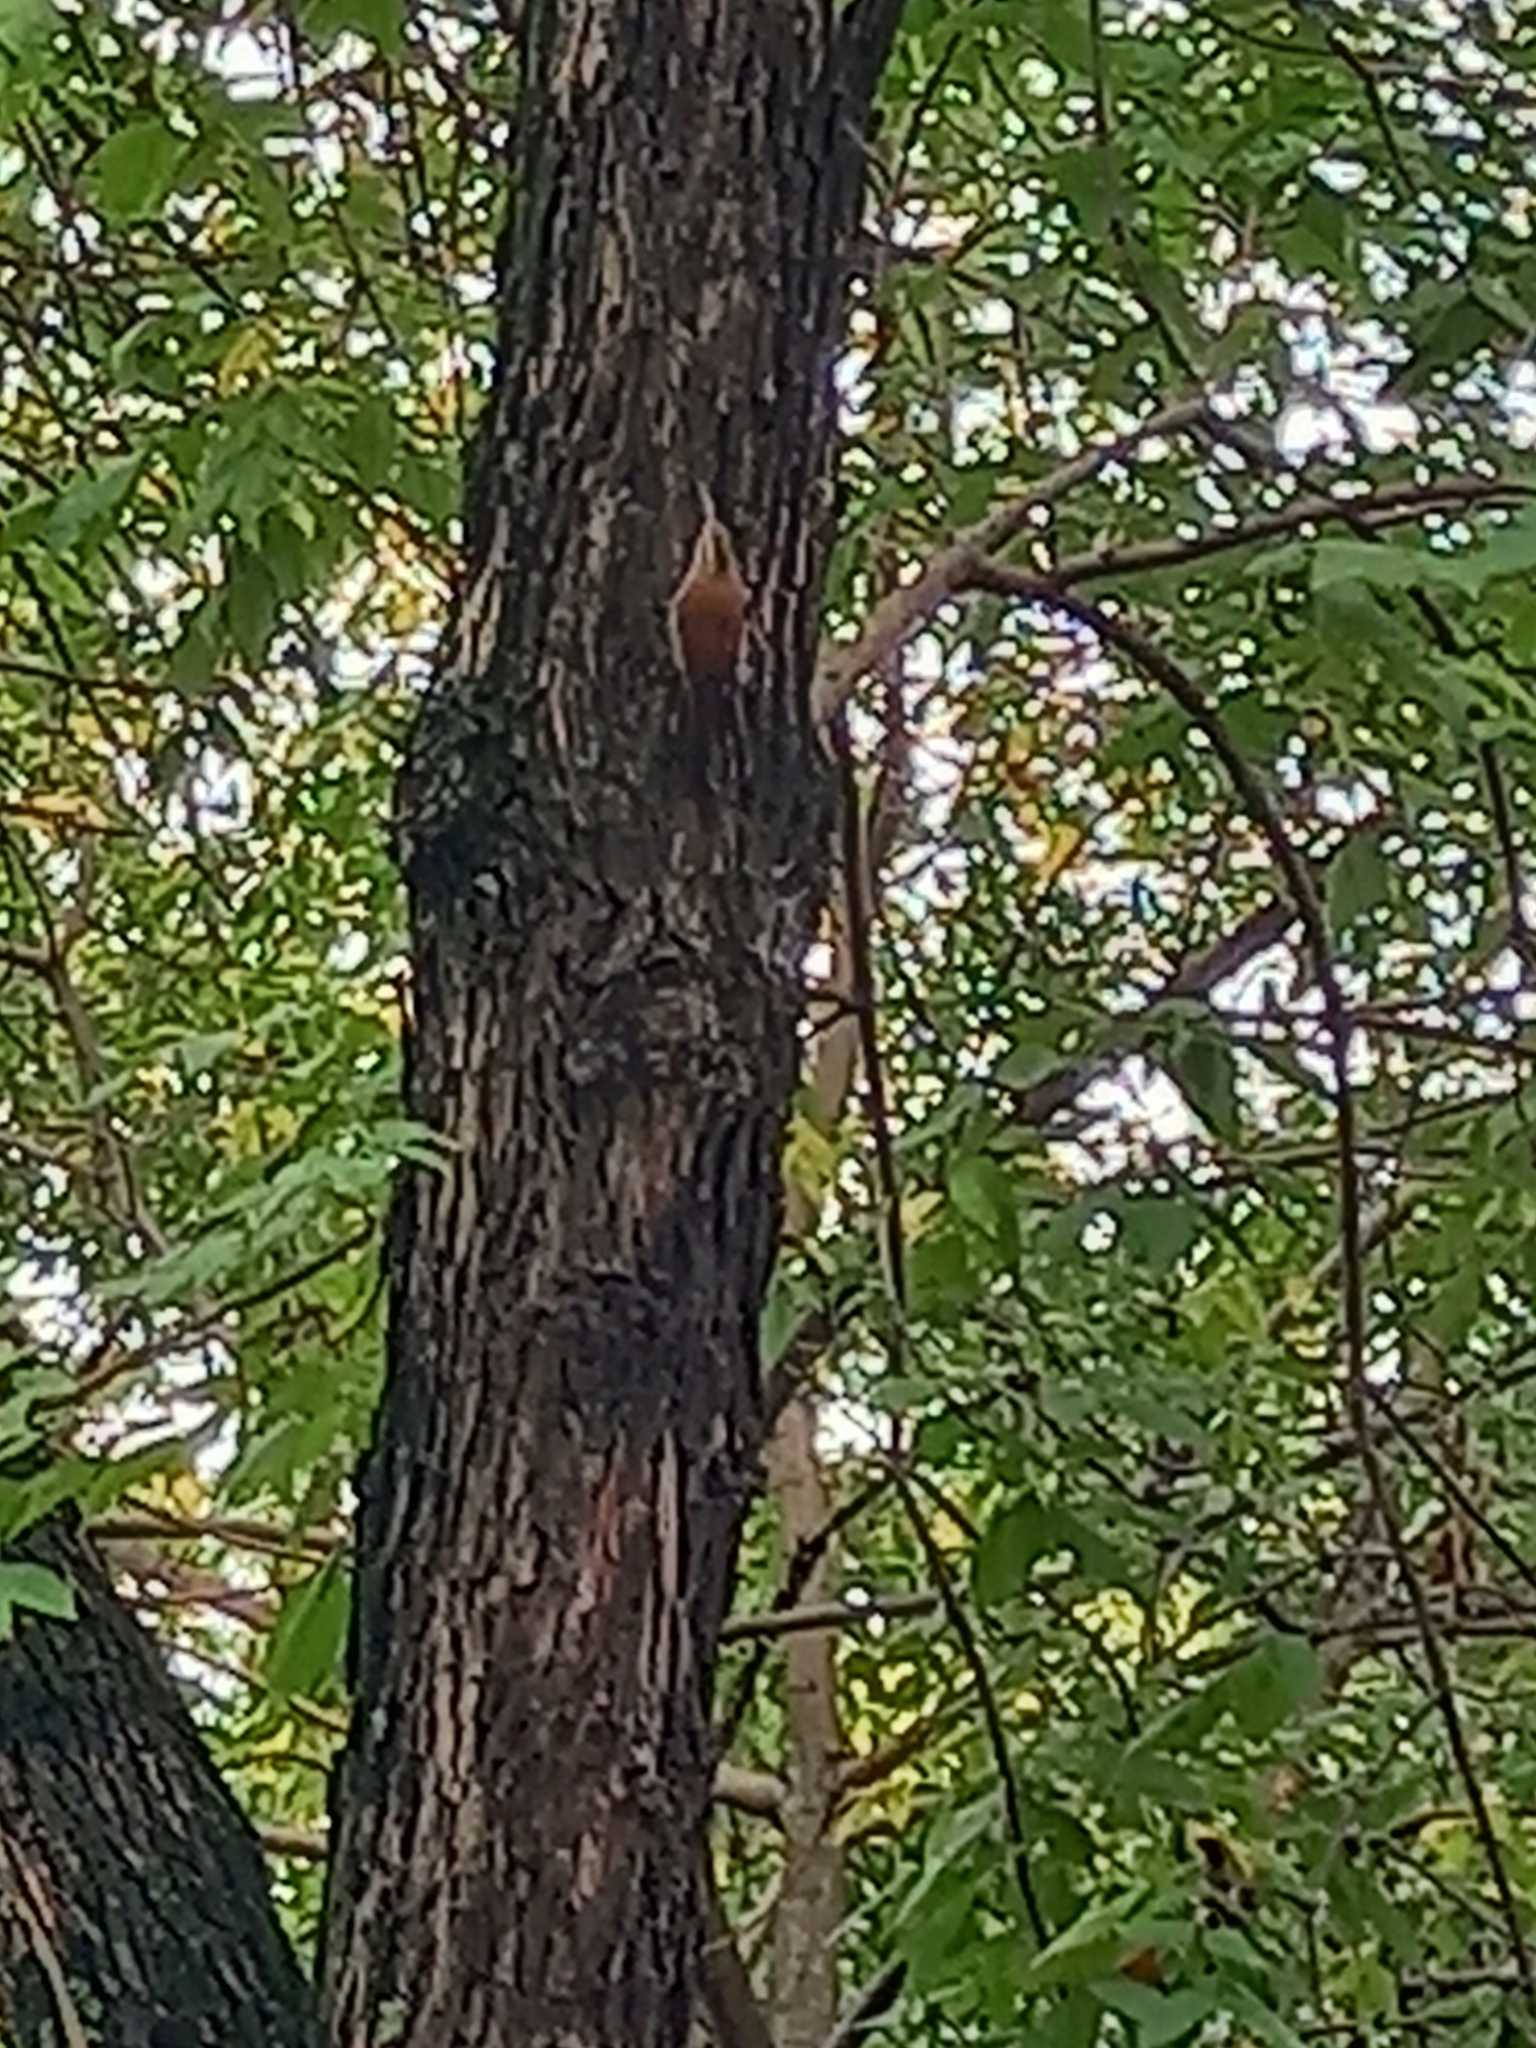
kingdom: Animalia
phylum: Chordata
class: Aves
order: Passeriformes
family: Furnariidae
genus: Lepidocolaptes
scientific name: Lepidocolaptes angustirostris
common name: Narrow-billed woodcreeper
